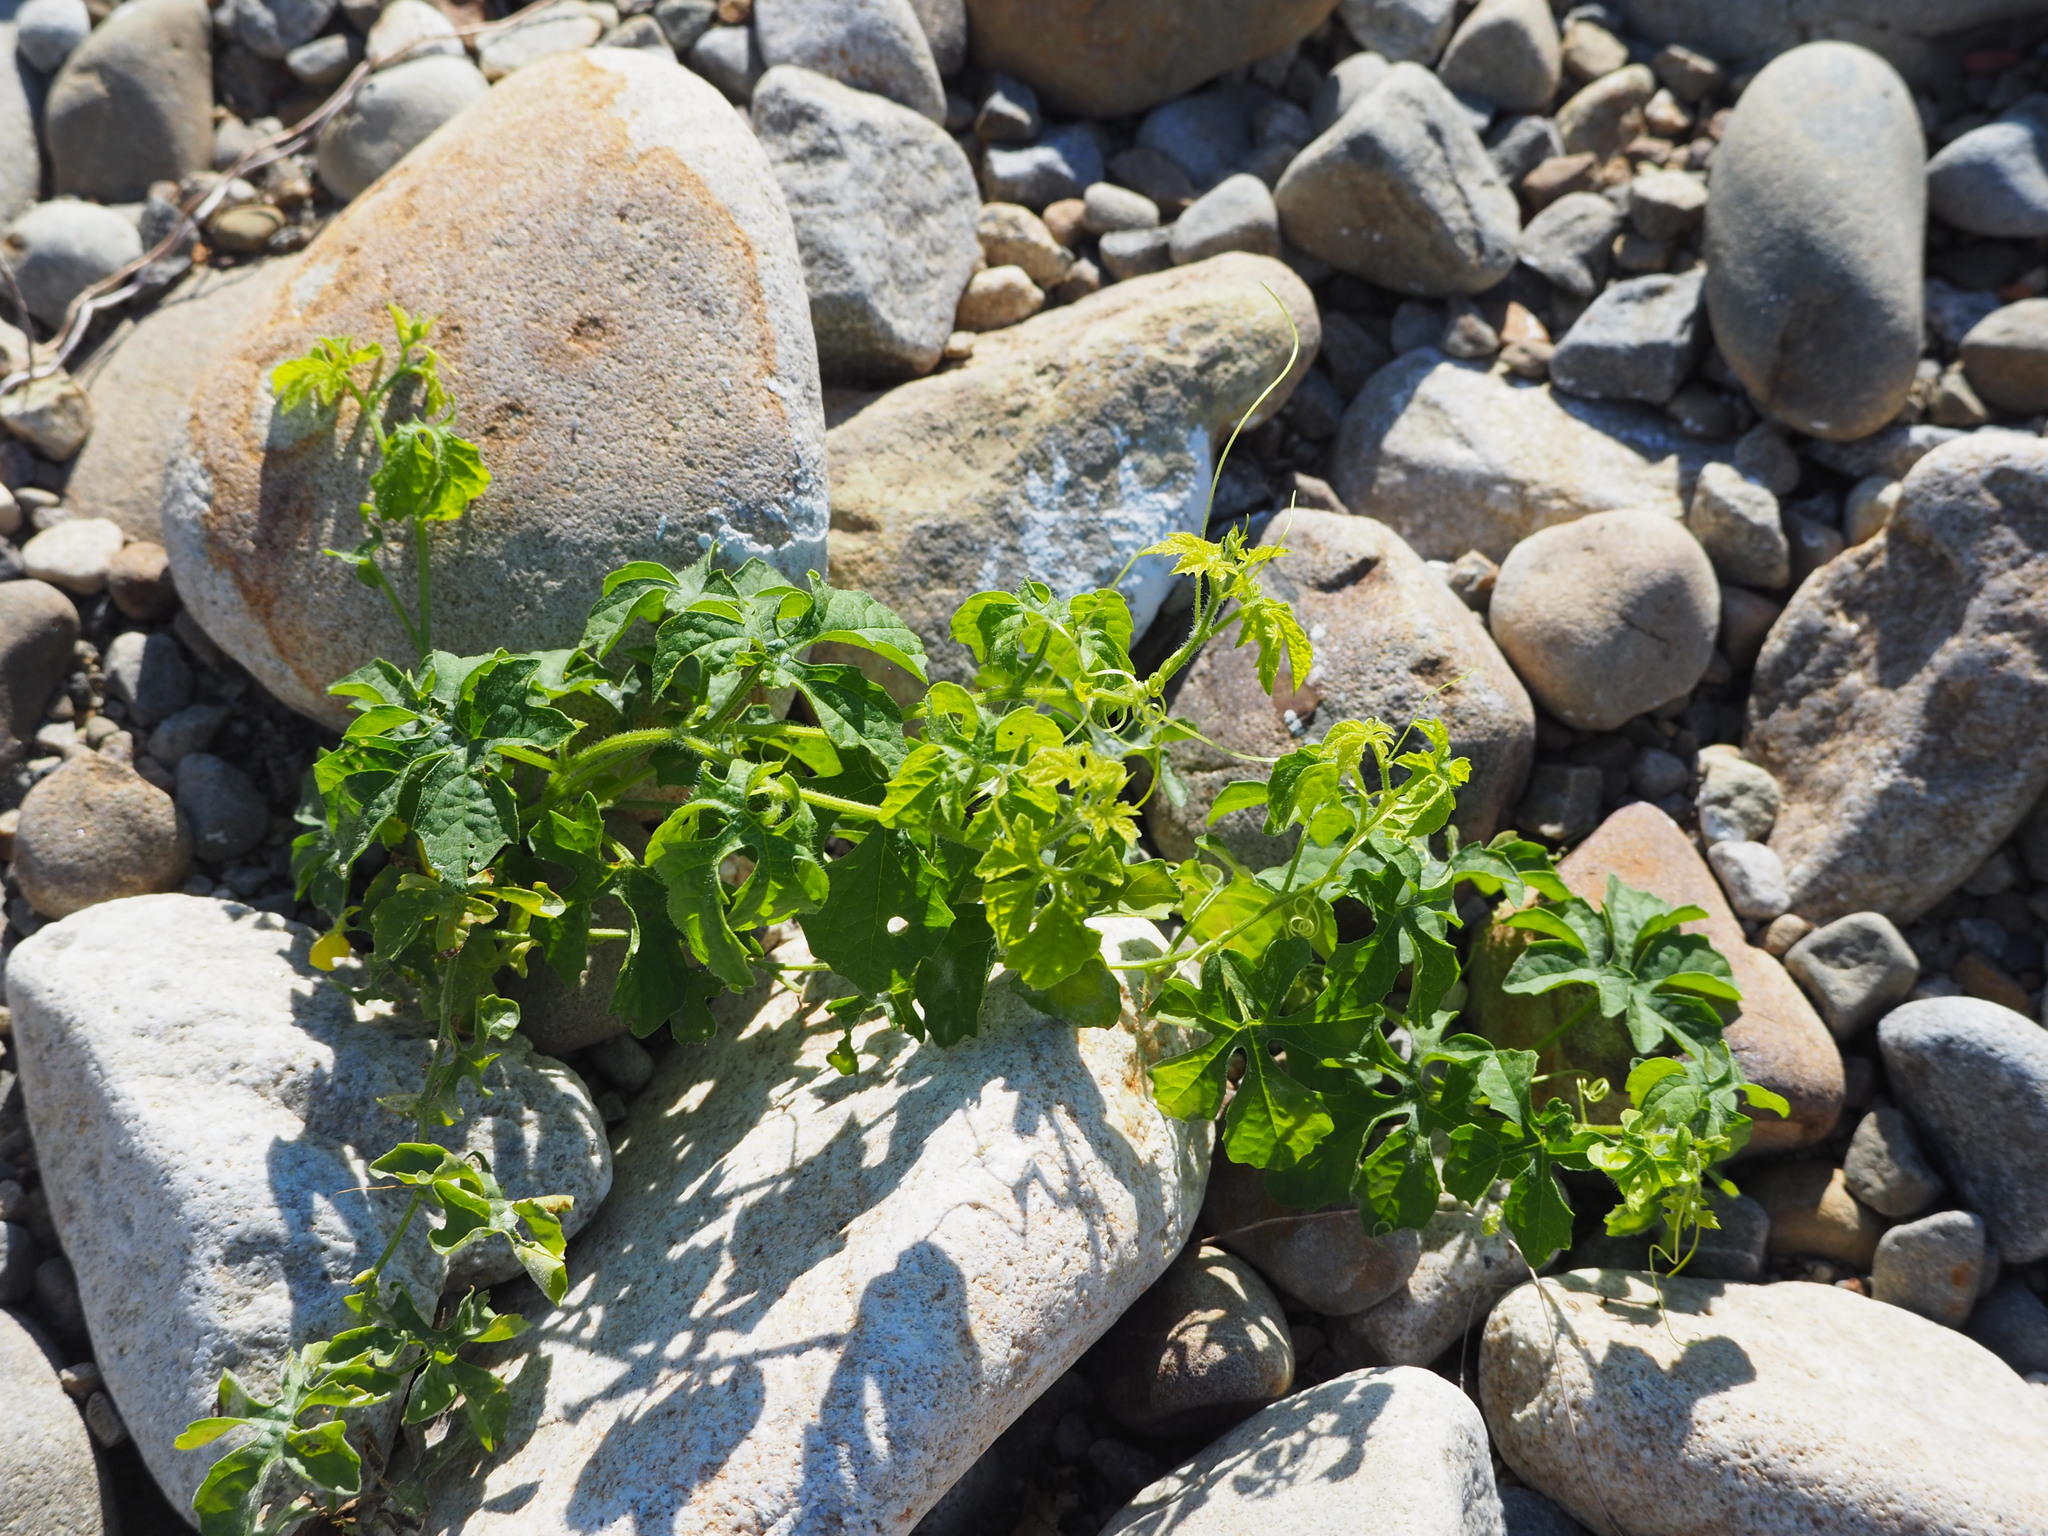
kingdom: Plantae
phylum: Tracheophyta
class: Magnoliopsida
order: Cucurbitales
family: Cucurbitaceae
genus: Momordica
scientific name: Momordica charantia
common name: Balsampear
